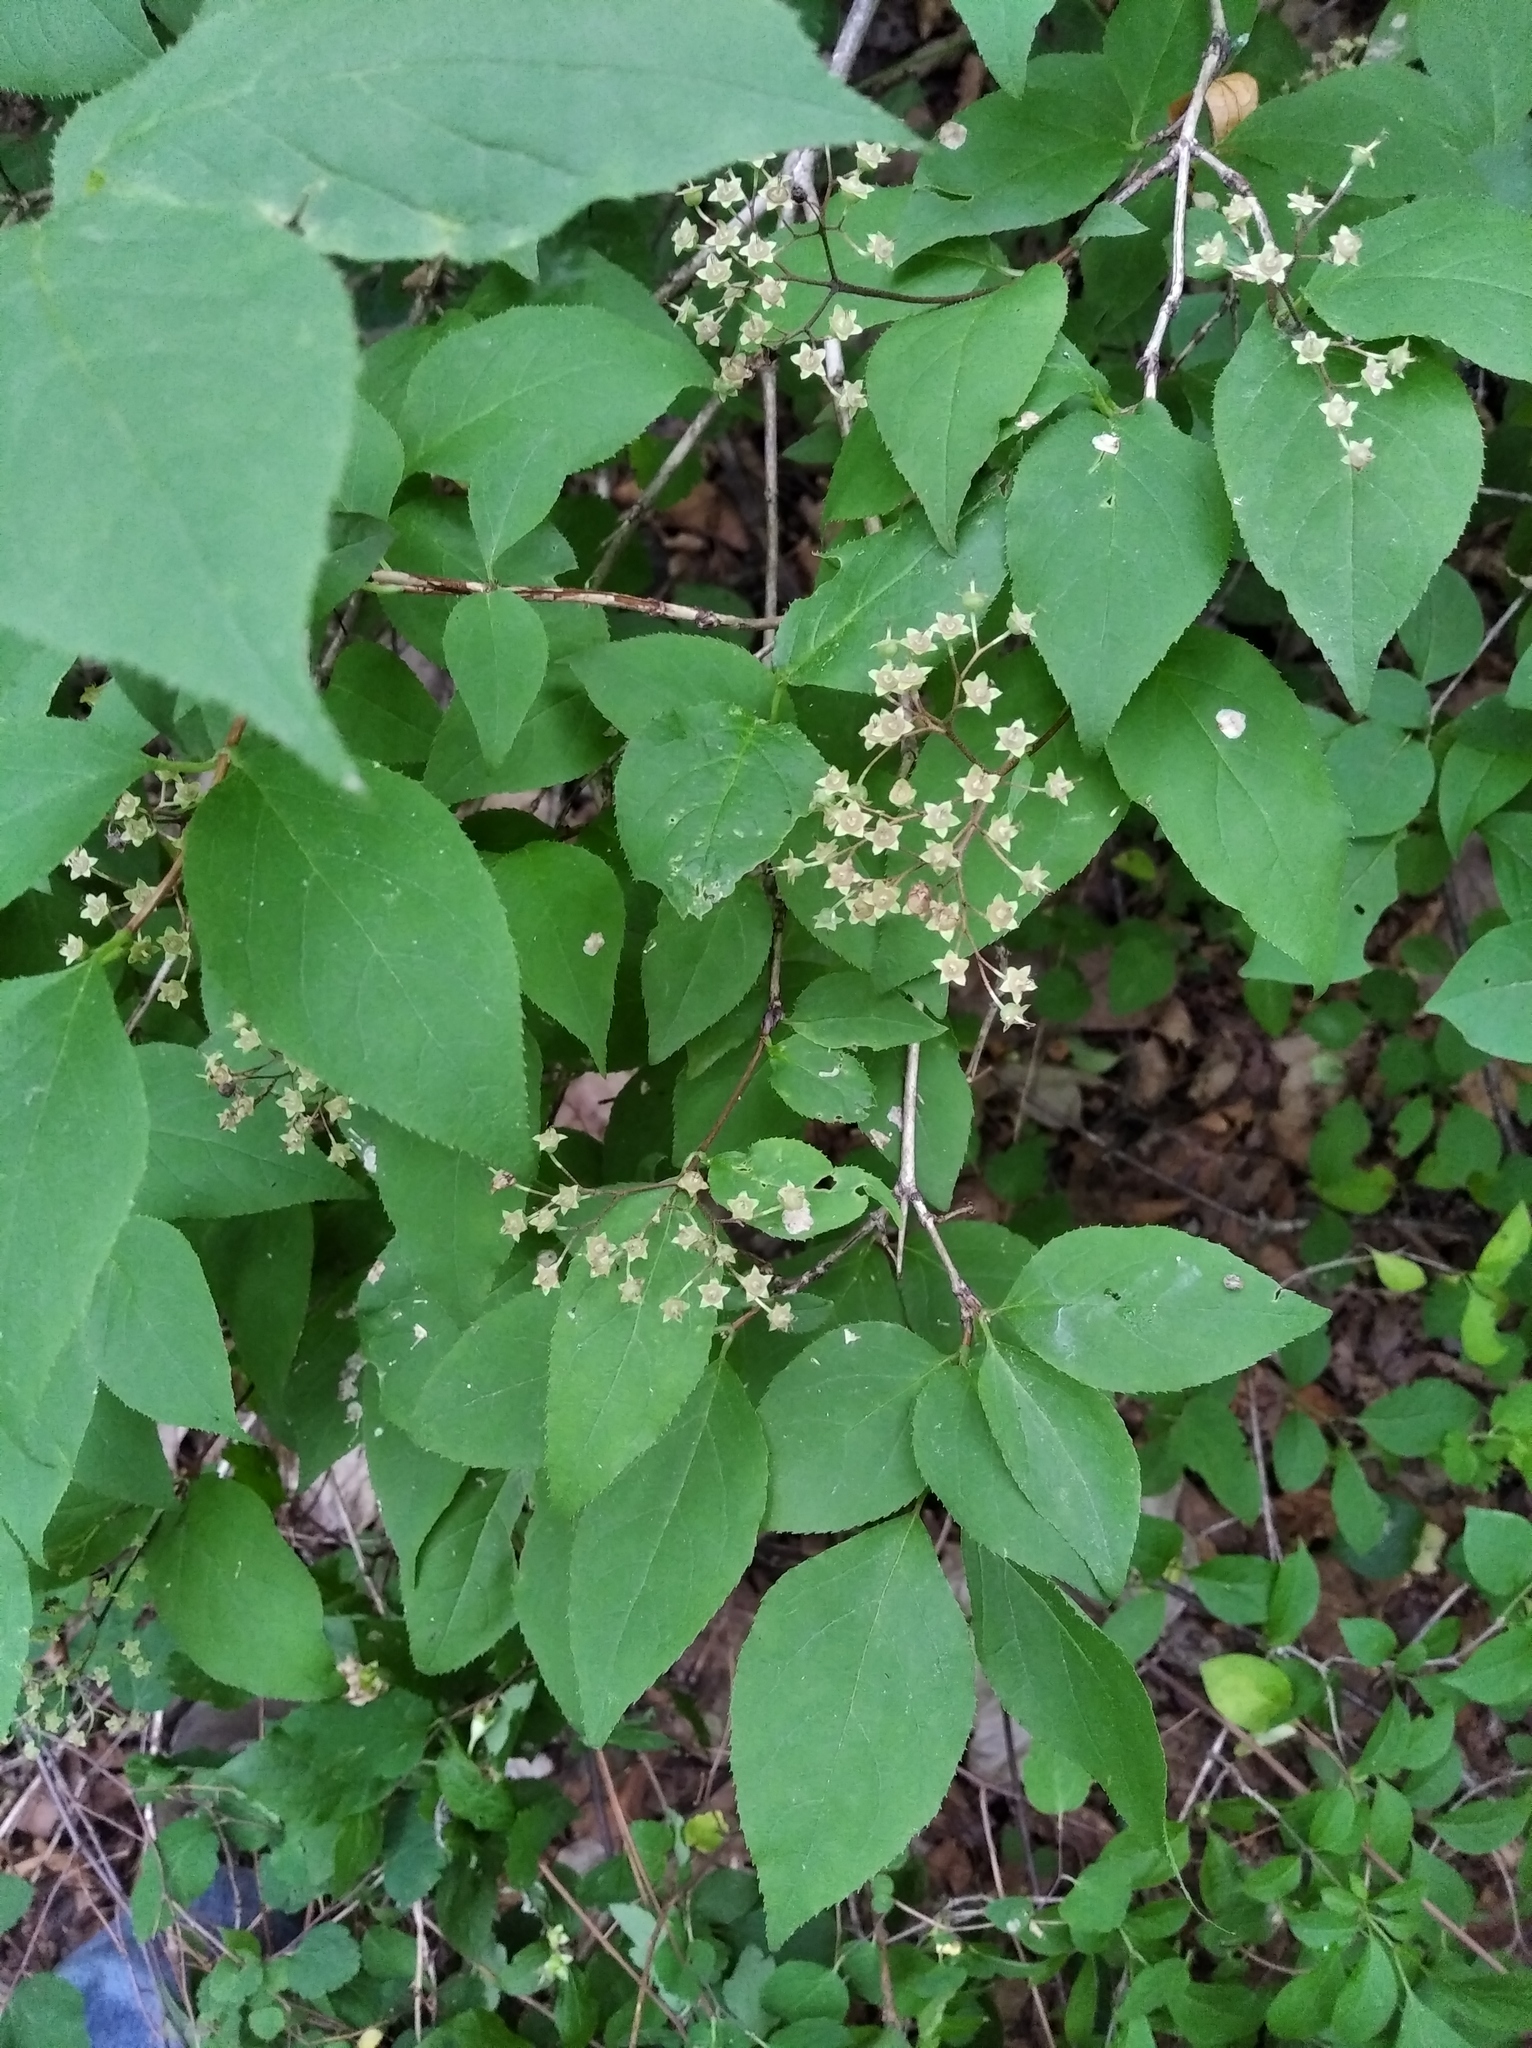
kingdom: Plantae
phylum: Tracheophyta
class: Magnoliopsida
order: Cornales
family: Hydrangeaceae
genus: Deutzia
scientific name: Deutzia parviflora
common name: Mongolian pride-of-rochester
